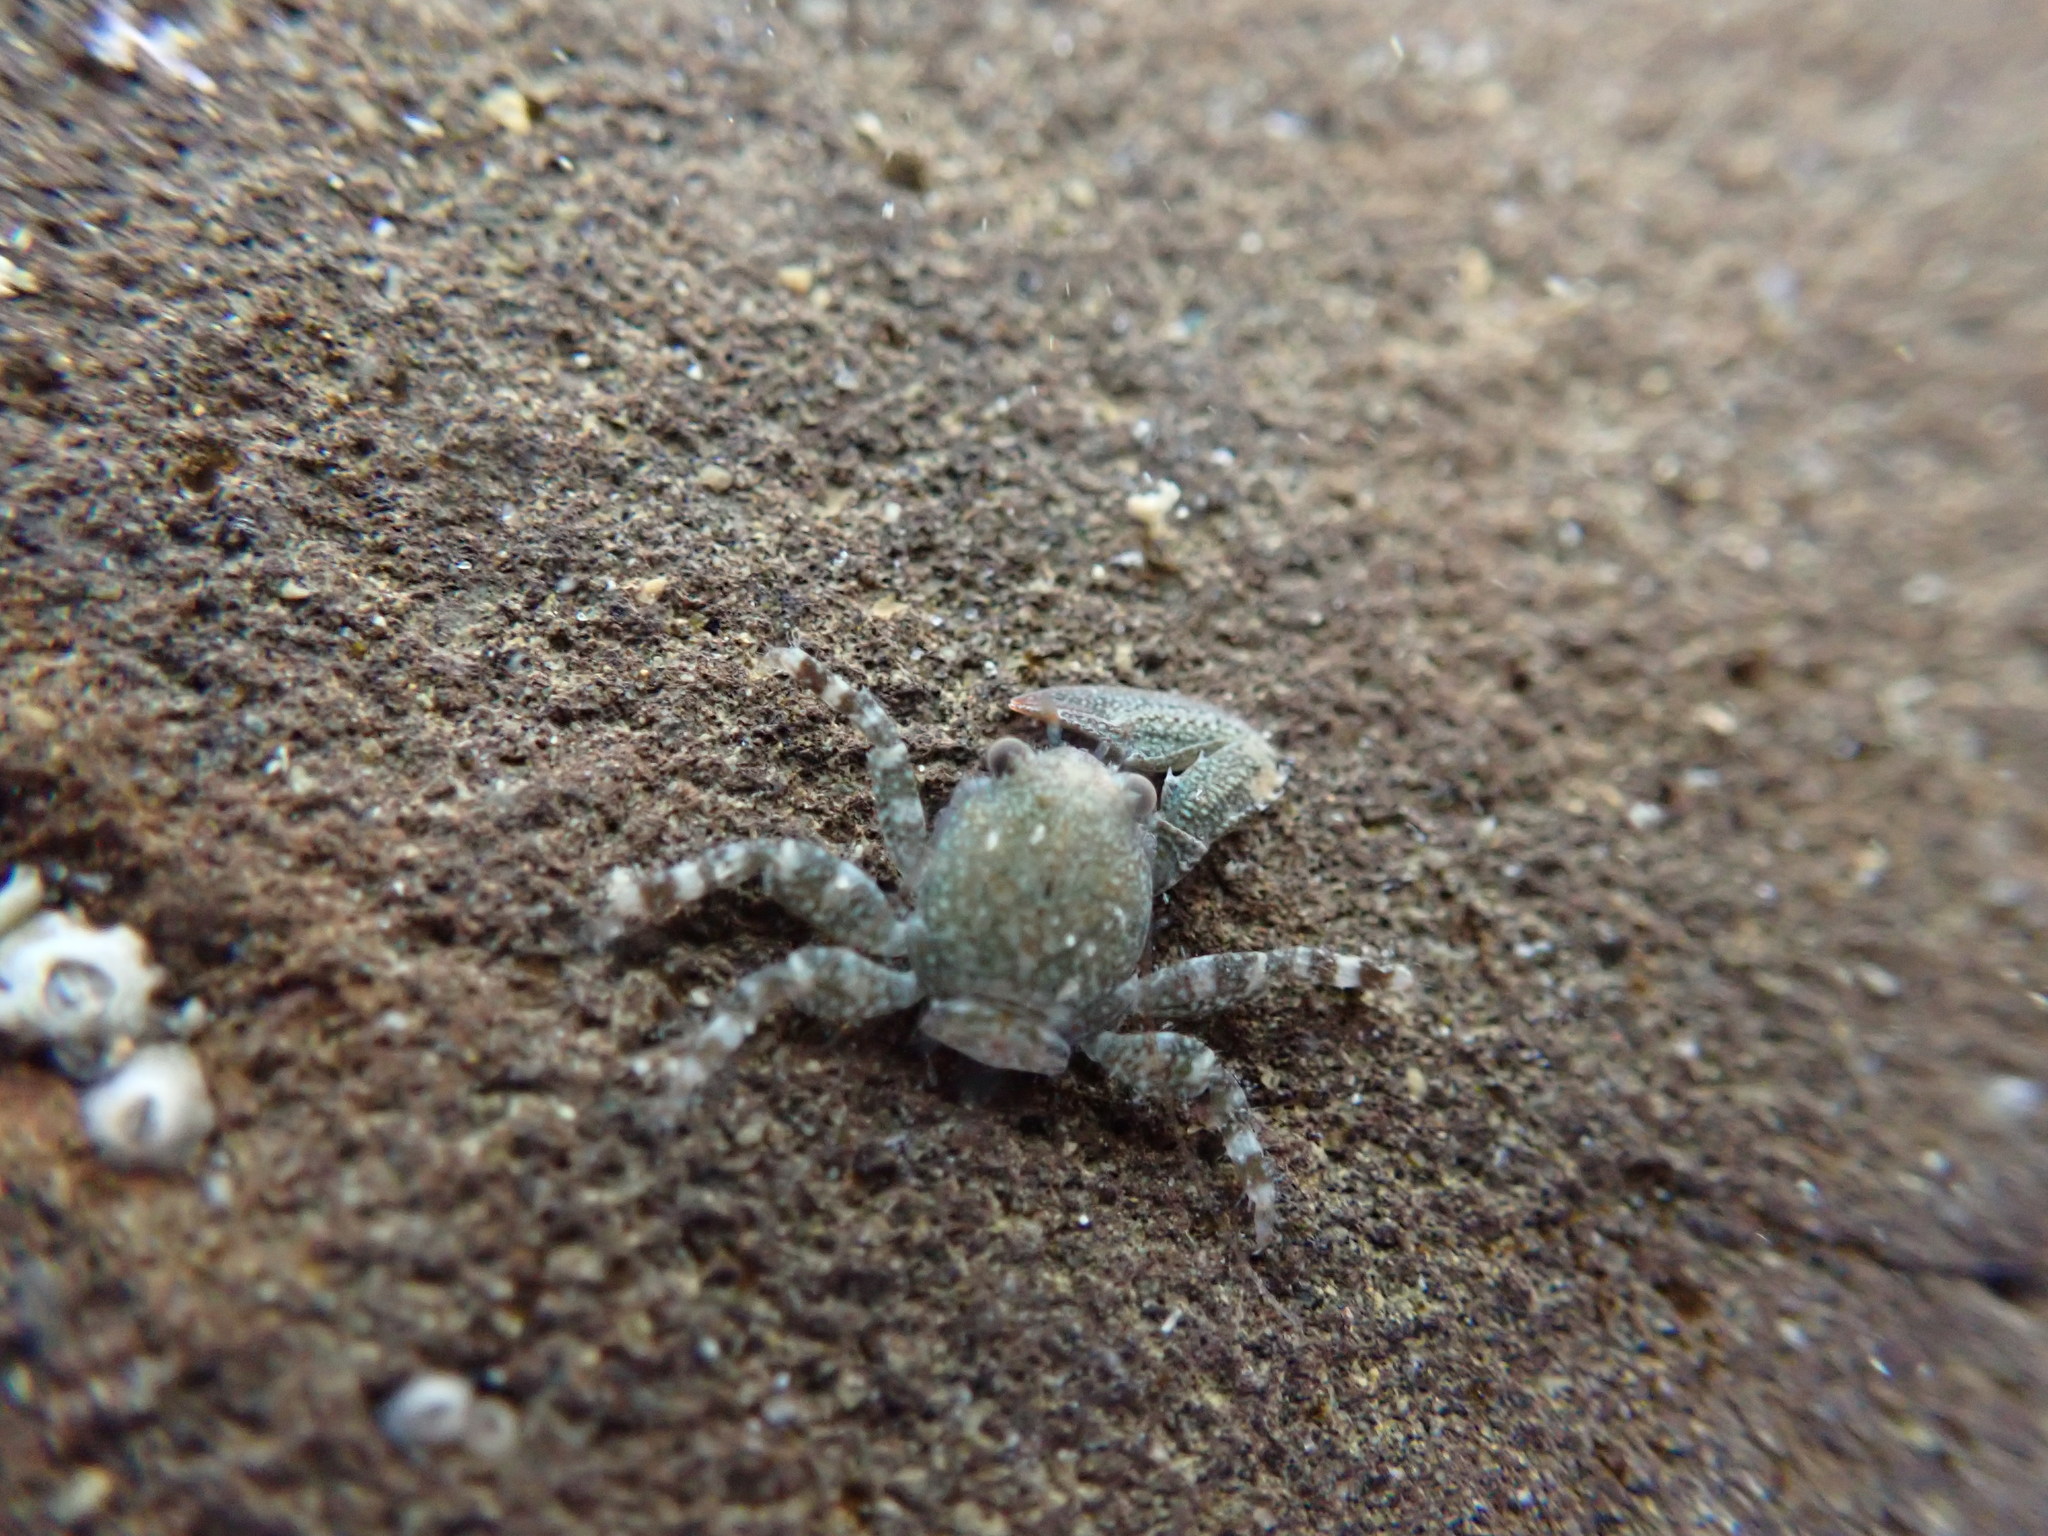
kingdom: Animalia
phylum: Arthropoda
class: Malacostraca
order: Decapoda
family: Porcellanidae
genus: Petrolisthes
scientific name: Petrolisthes novaezelandiae
